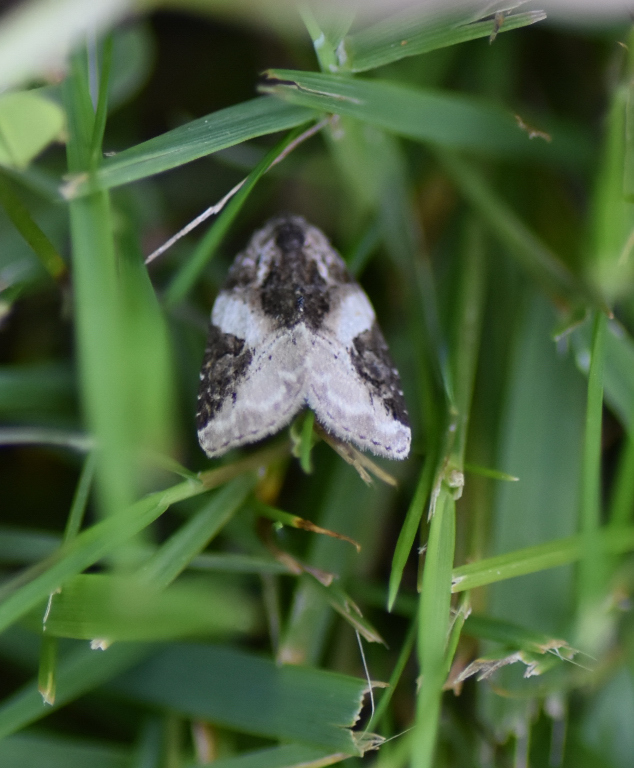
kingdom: Animalia
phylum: Arthropoda
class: Insecta
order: Lepidoptera
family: Noctuidae
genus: Pseudeustrotia
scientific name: Pseudeustrotia carneola
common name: Pink-barred lithacodia moth
